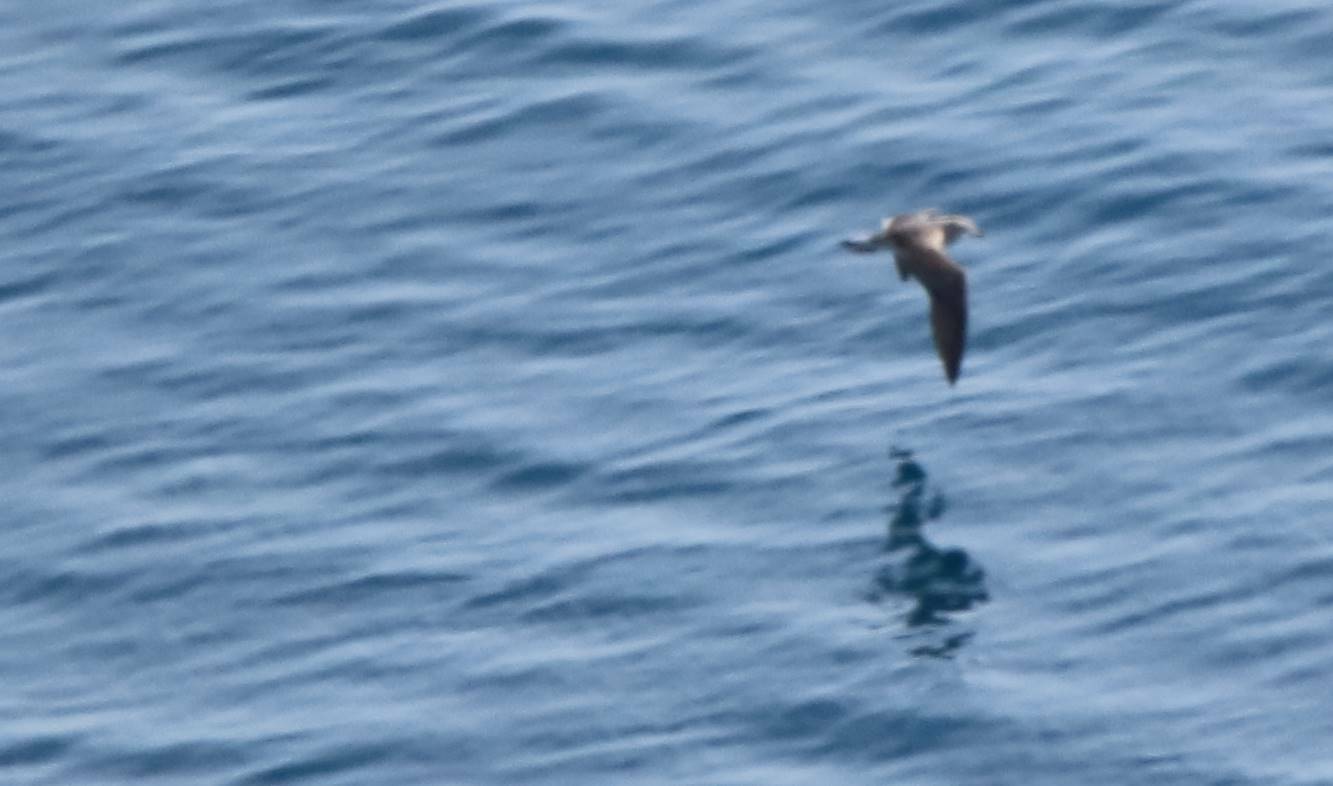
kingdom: Animalia
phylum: Chordata
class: Aves
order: Procellariiformes
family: Procellariidae
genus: Calonectris
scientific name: Calonectris diomedea
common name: Cory's shearwater
